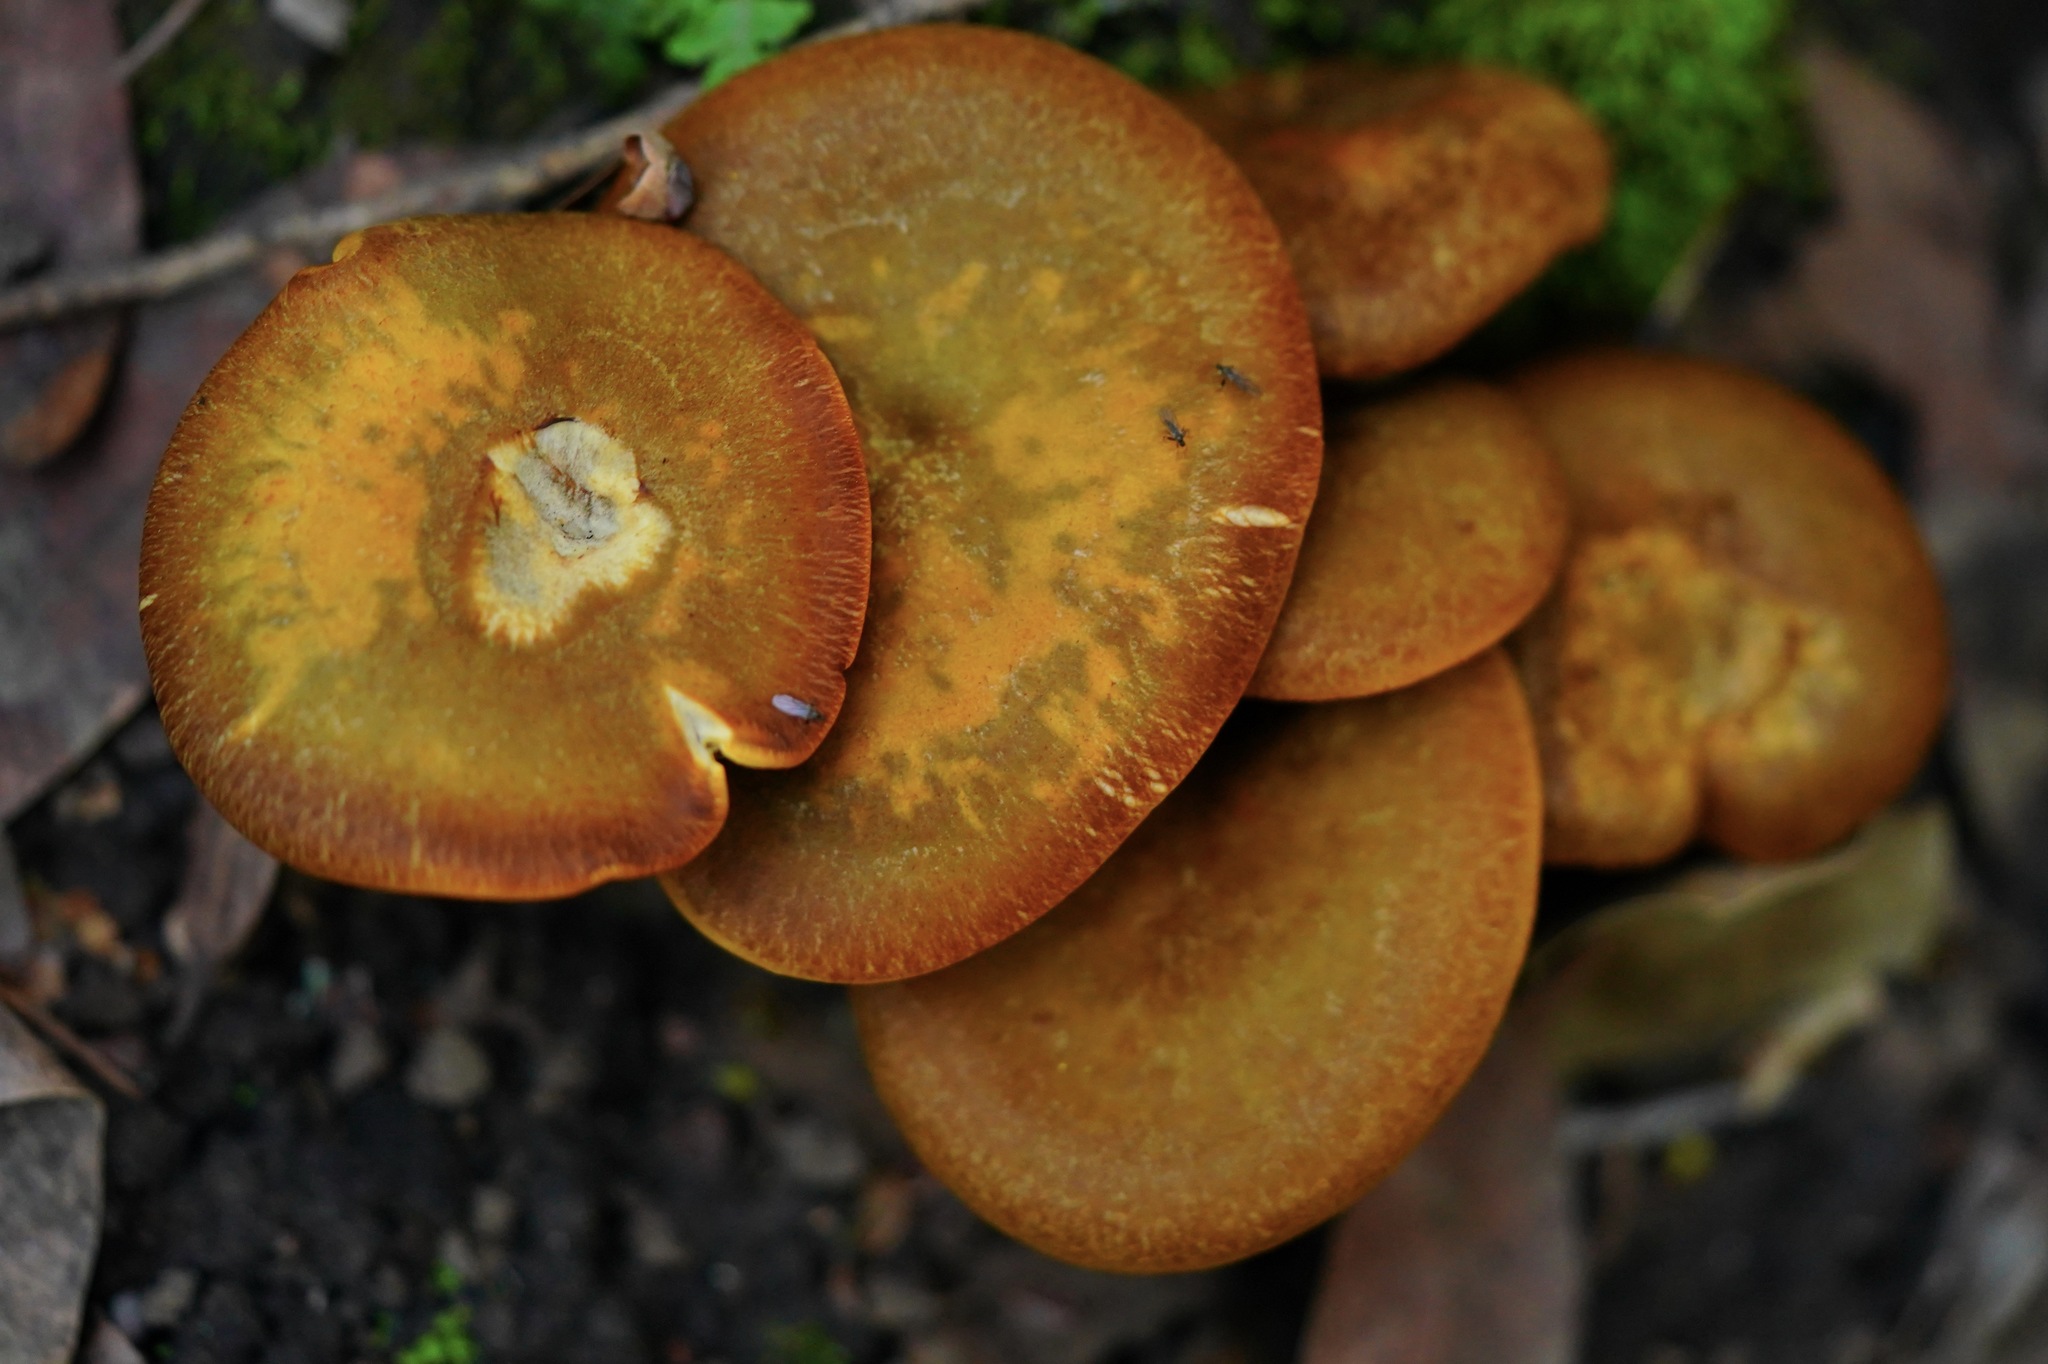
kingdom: Fungi
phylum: Basidiomycota
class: Agaricomycetes
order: Agaricales
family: Omphalotaceae
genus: Omphalotus
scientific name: Omphalotus olivascens
